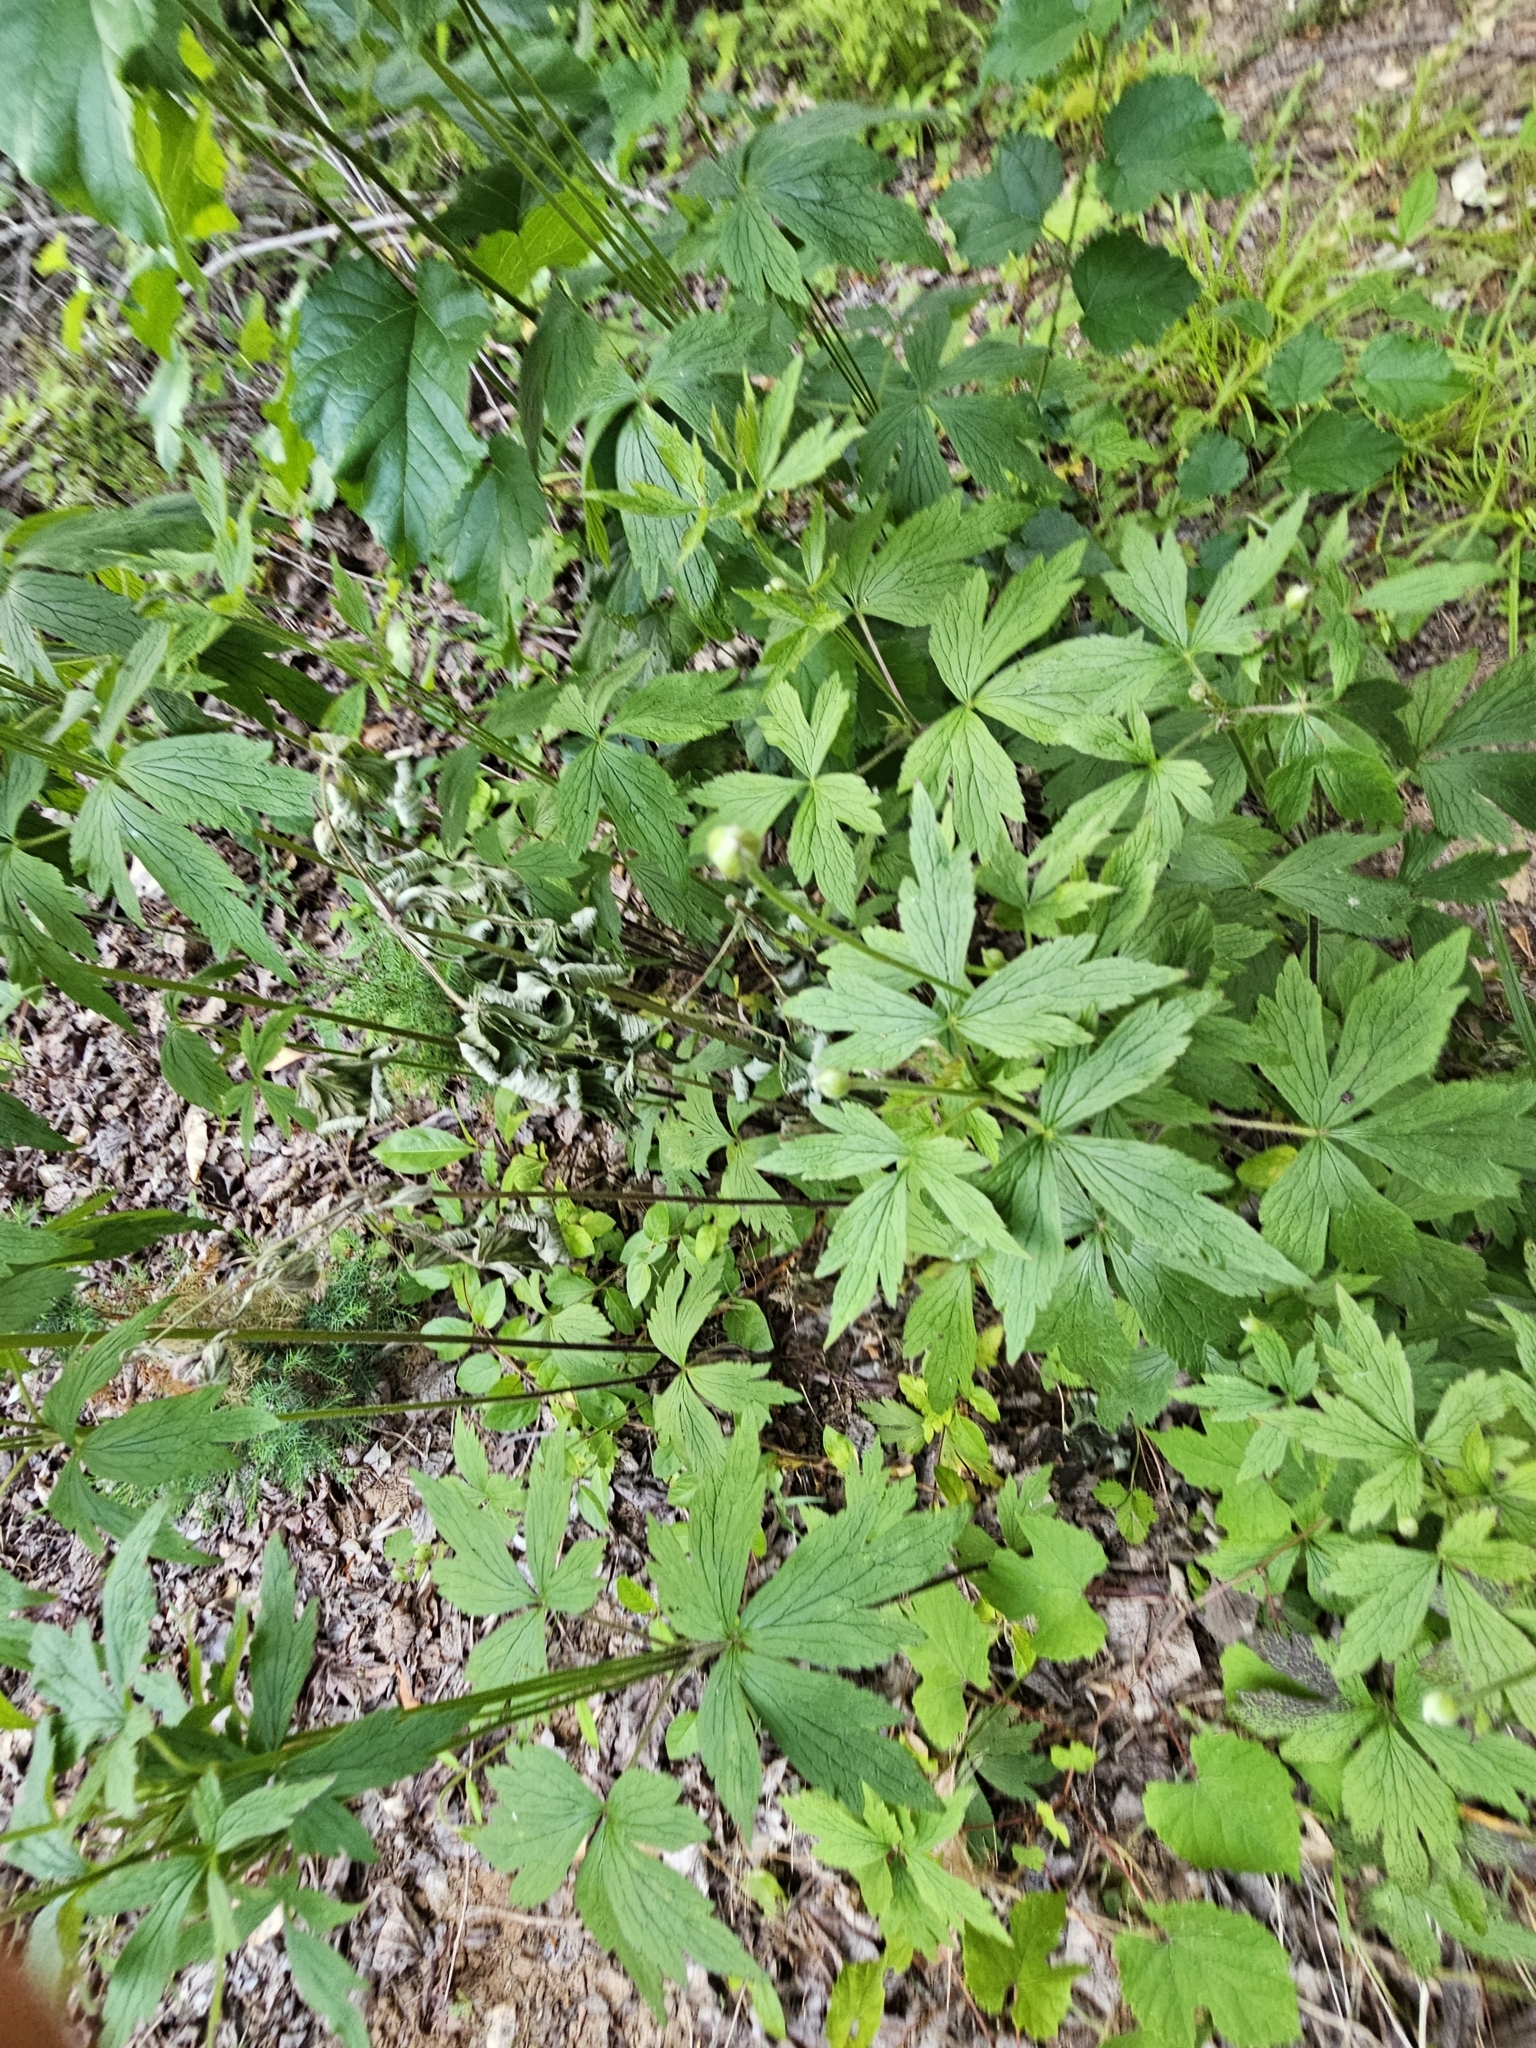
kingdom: Plantae
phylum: Tracheophyta
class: Magnoliopsida
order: Ranunculales
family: Ranunculaceae
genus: Anemone
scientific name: Anemone virginiana
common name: Tall anemone
